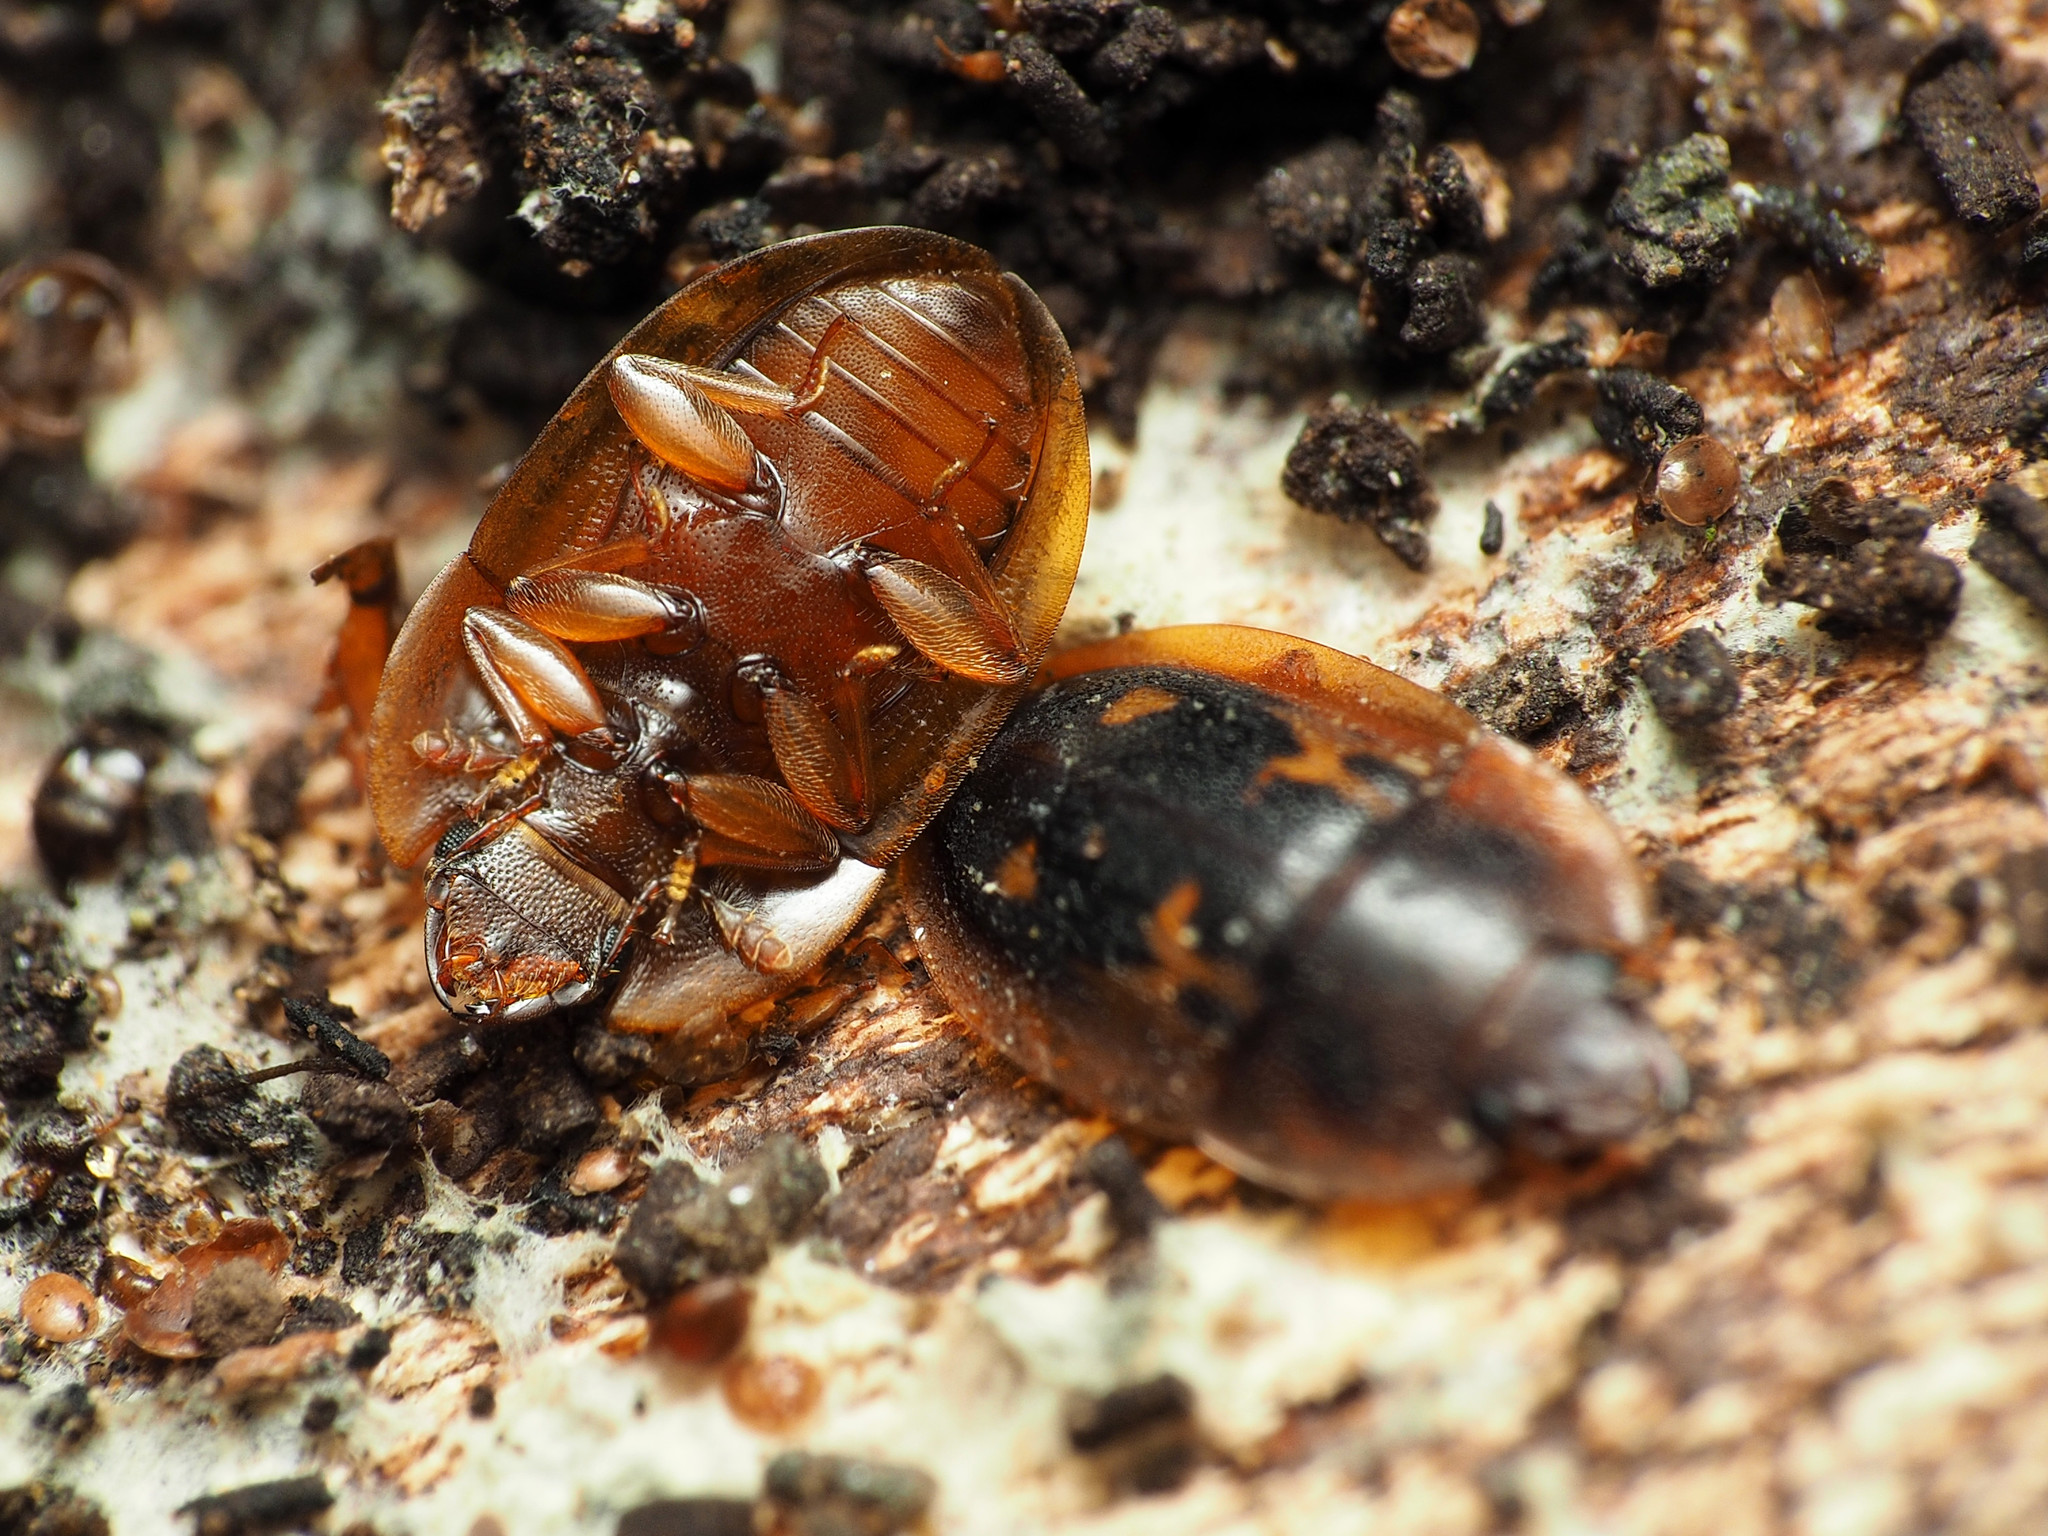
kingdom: Animalia
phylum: Arthropoda
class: Insecta
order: Coleoptera
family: Nitidulidae
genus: Prometopia
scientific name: Prometopia sexmaculata
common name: Six-spotted sap-feeding beetle
